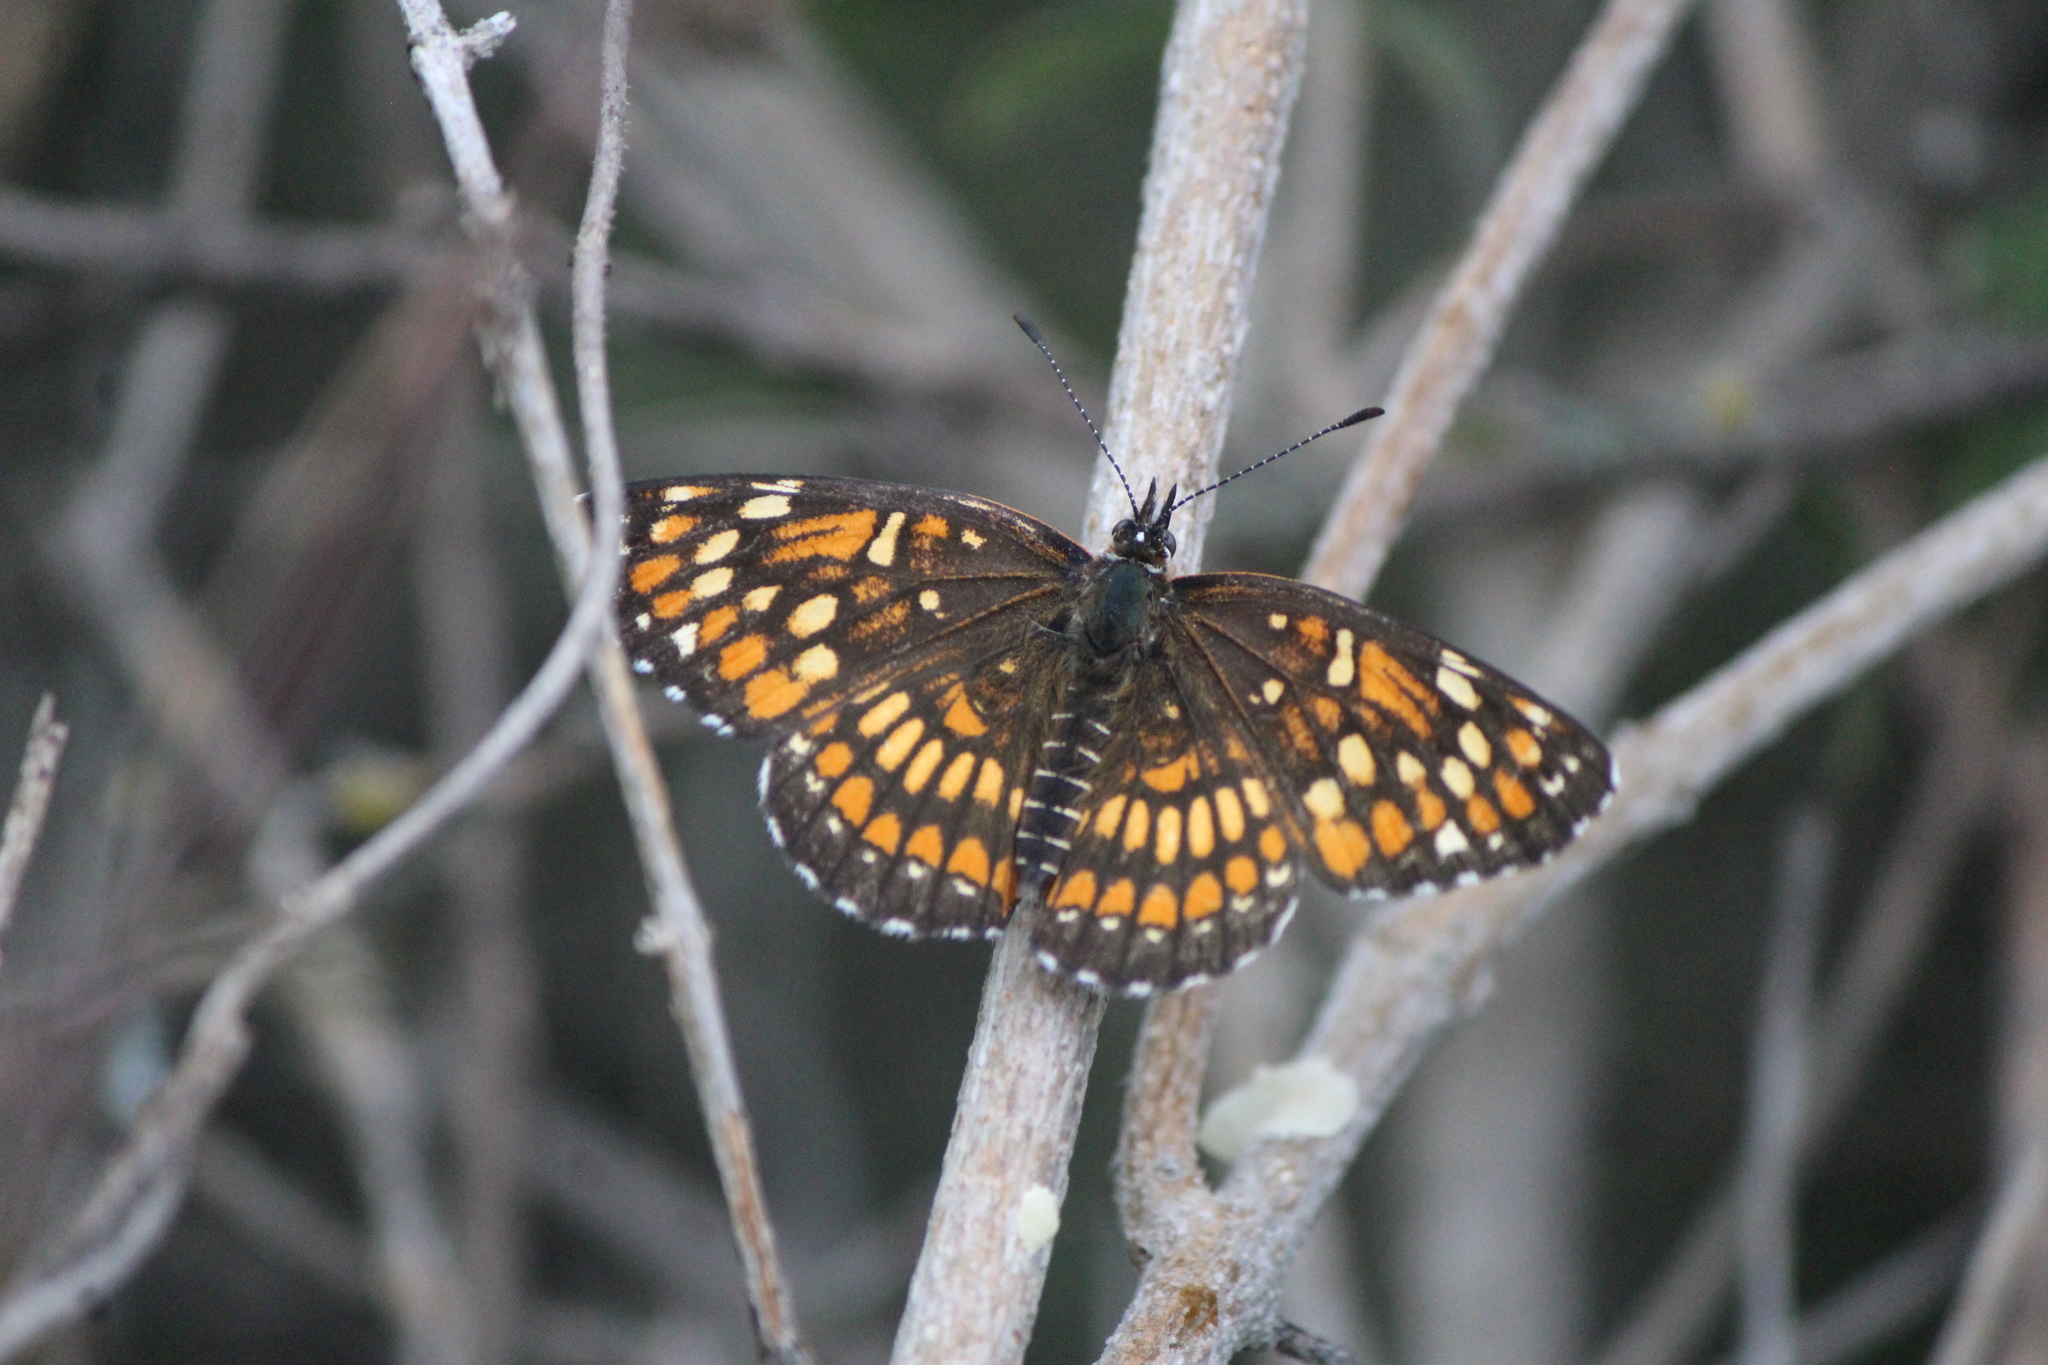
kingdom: Animalia
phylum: Arthropoda
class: Insecta
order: Lepidoptera
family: Nymphalidae
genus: Chlosyne
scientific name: Chlosyne
